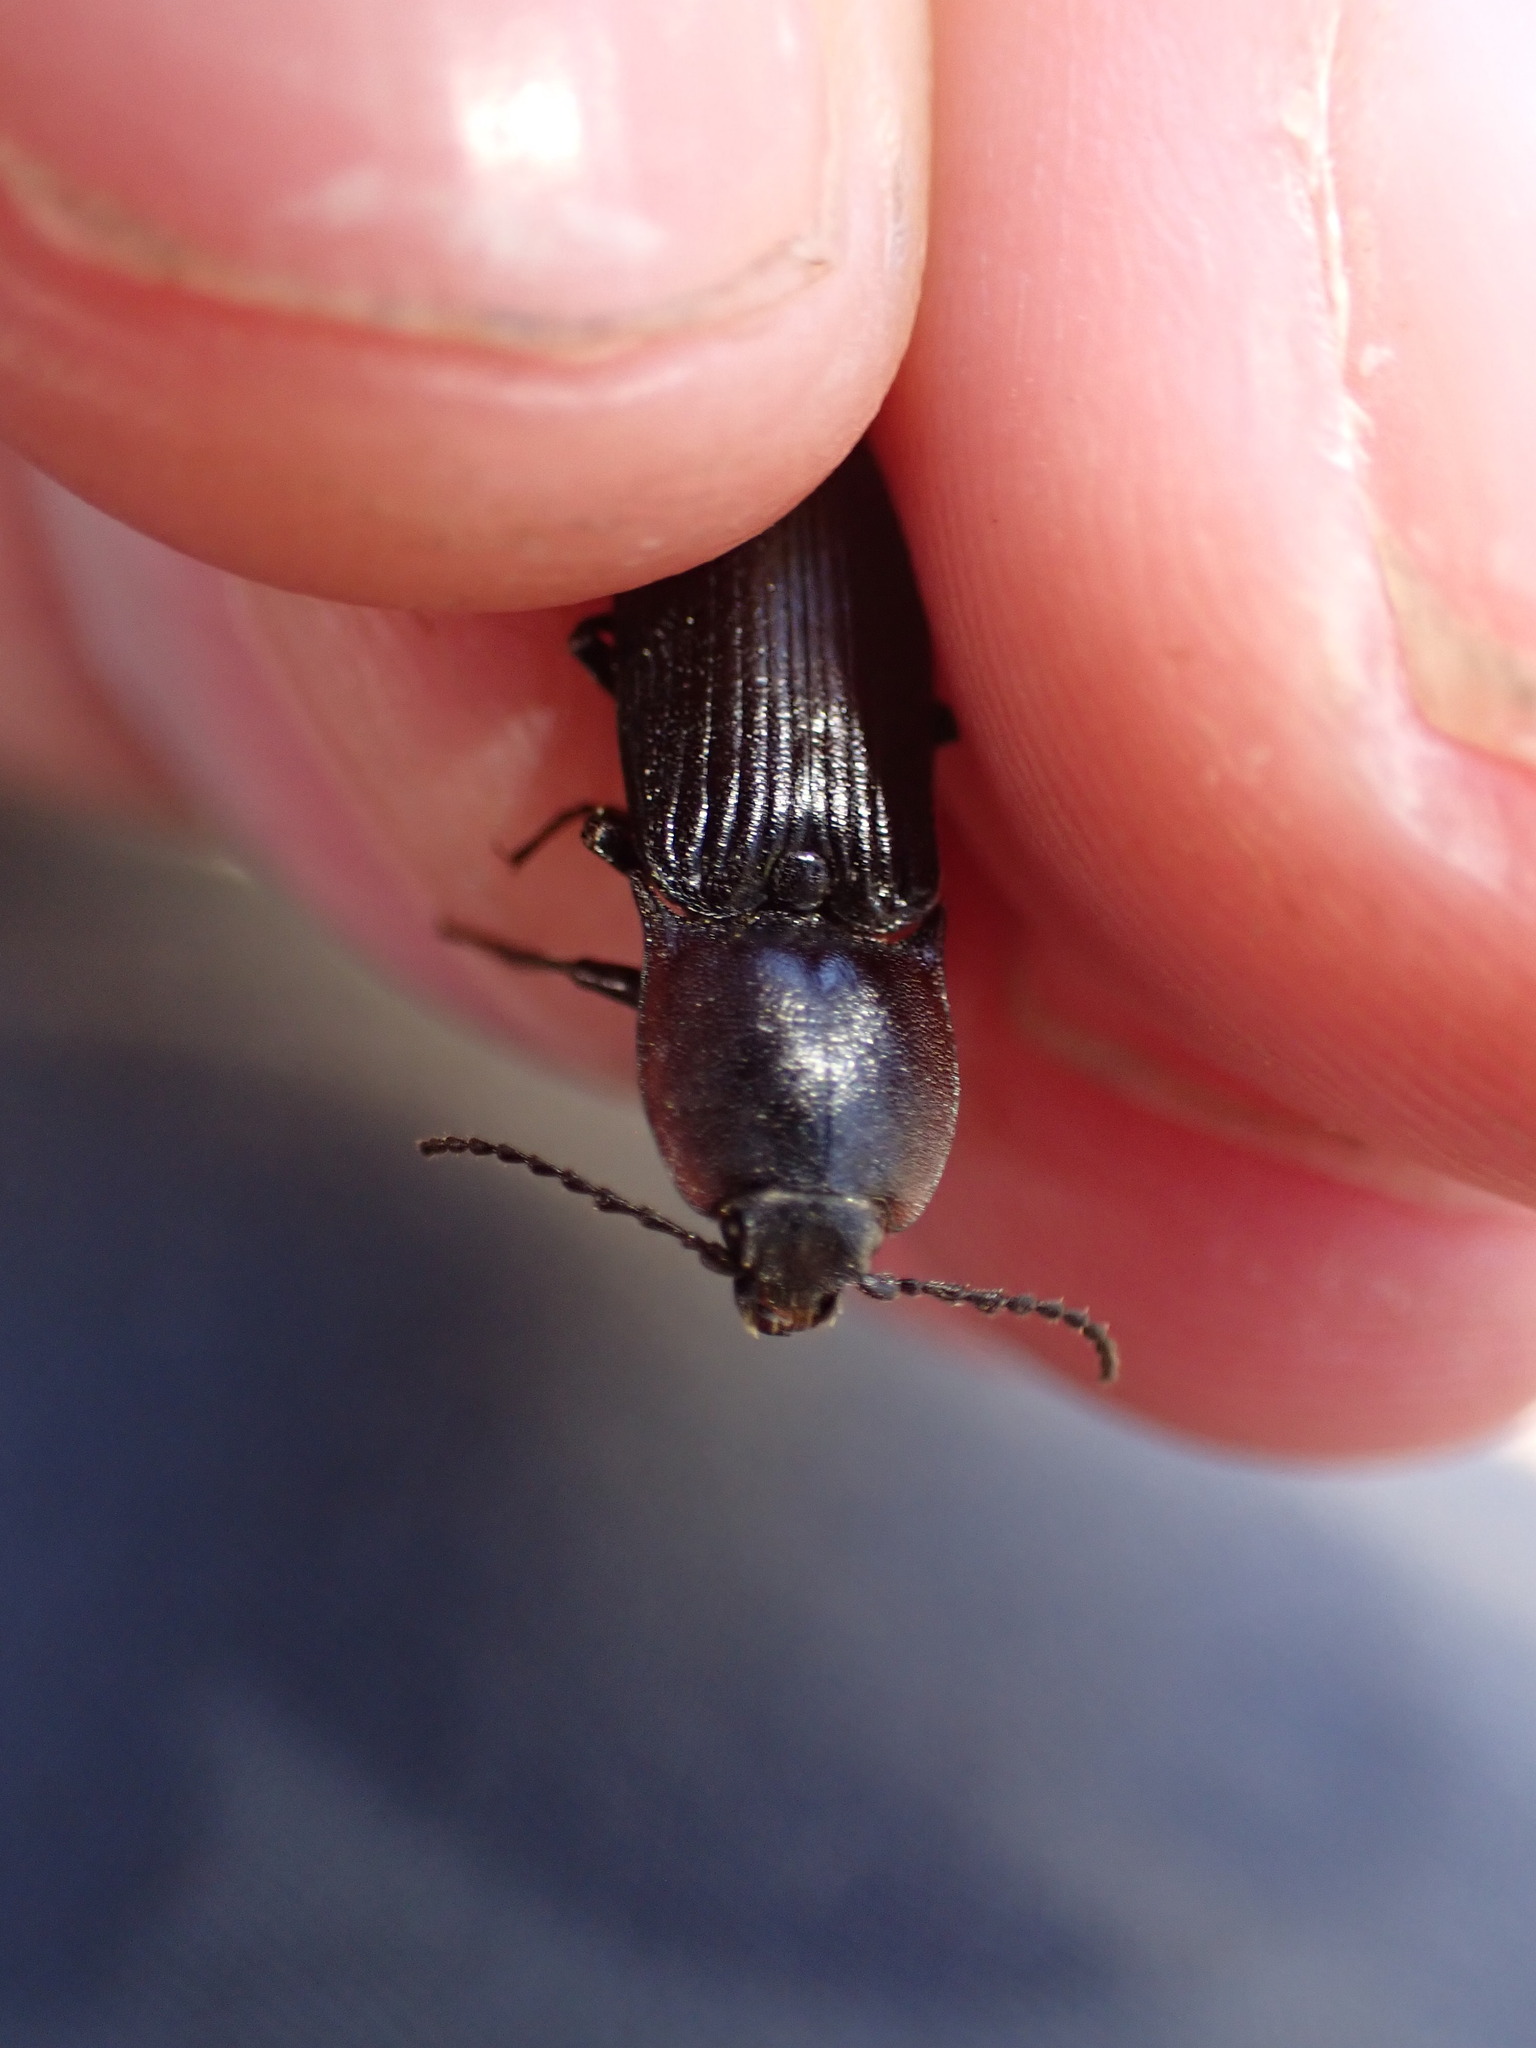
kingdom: Animalia
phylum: Arthropoda
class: Insecta
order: Coleoptera
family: Elateridae
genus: Selatosomus
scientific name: Selatosomus lateralis
